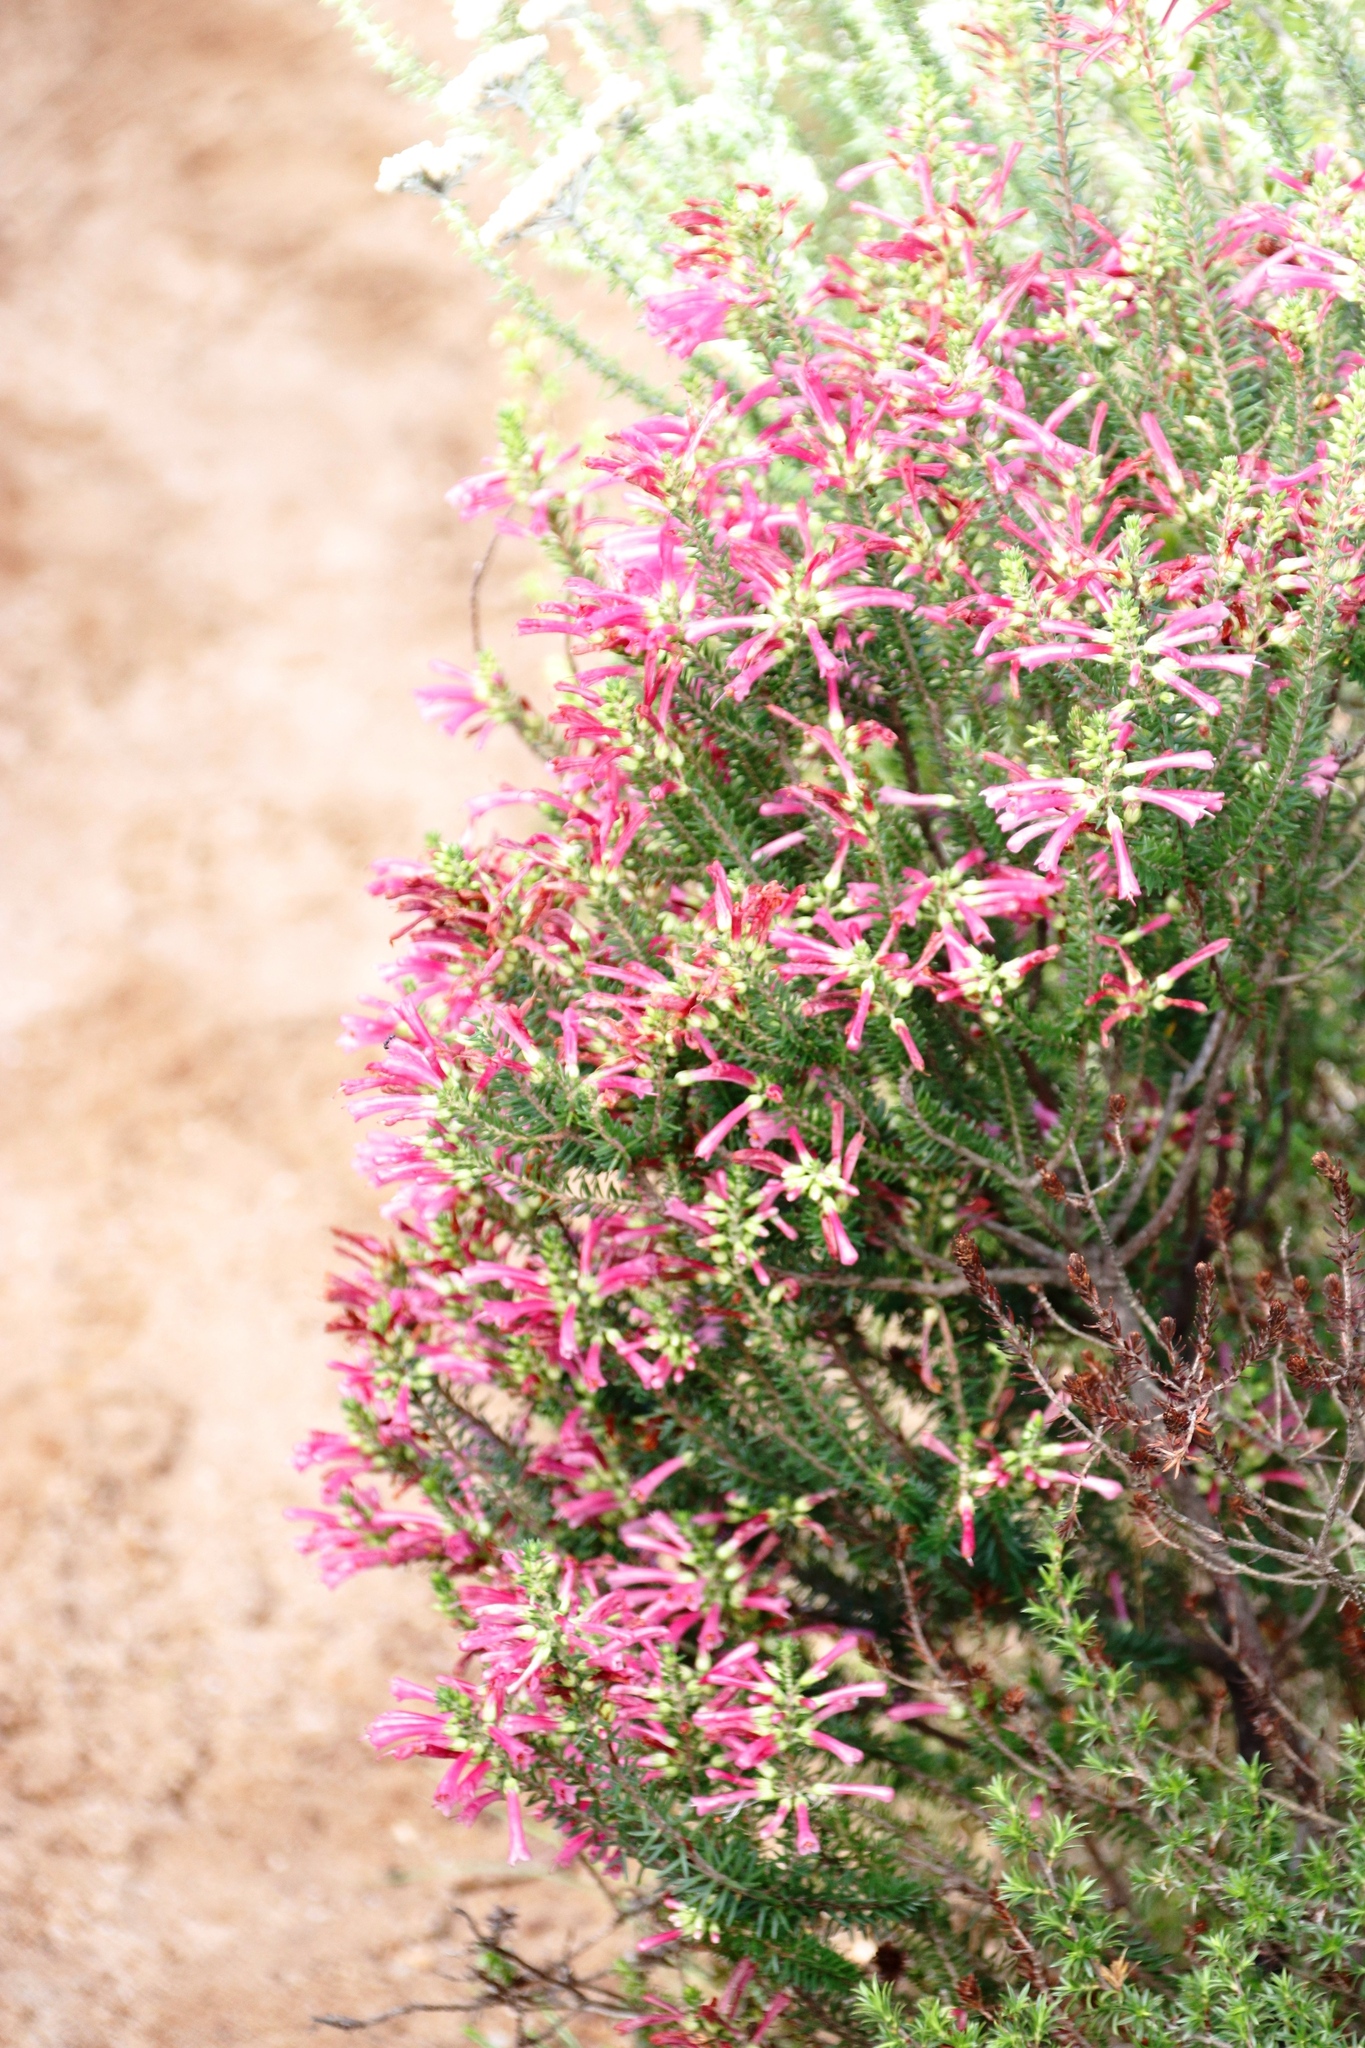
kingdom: Plantae
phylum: Tracheophyta
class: Magnoliopsida
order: Ericales
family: Ericaceae
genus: Erica
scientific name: Erica abietina
